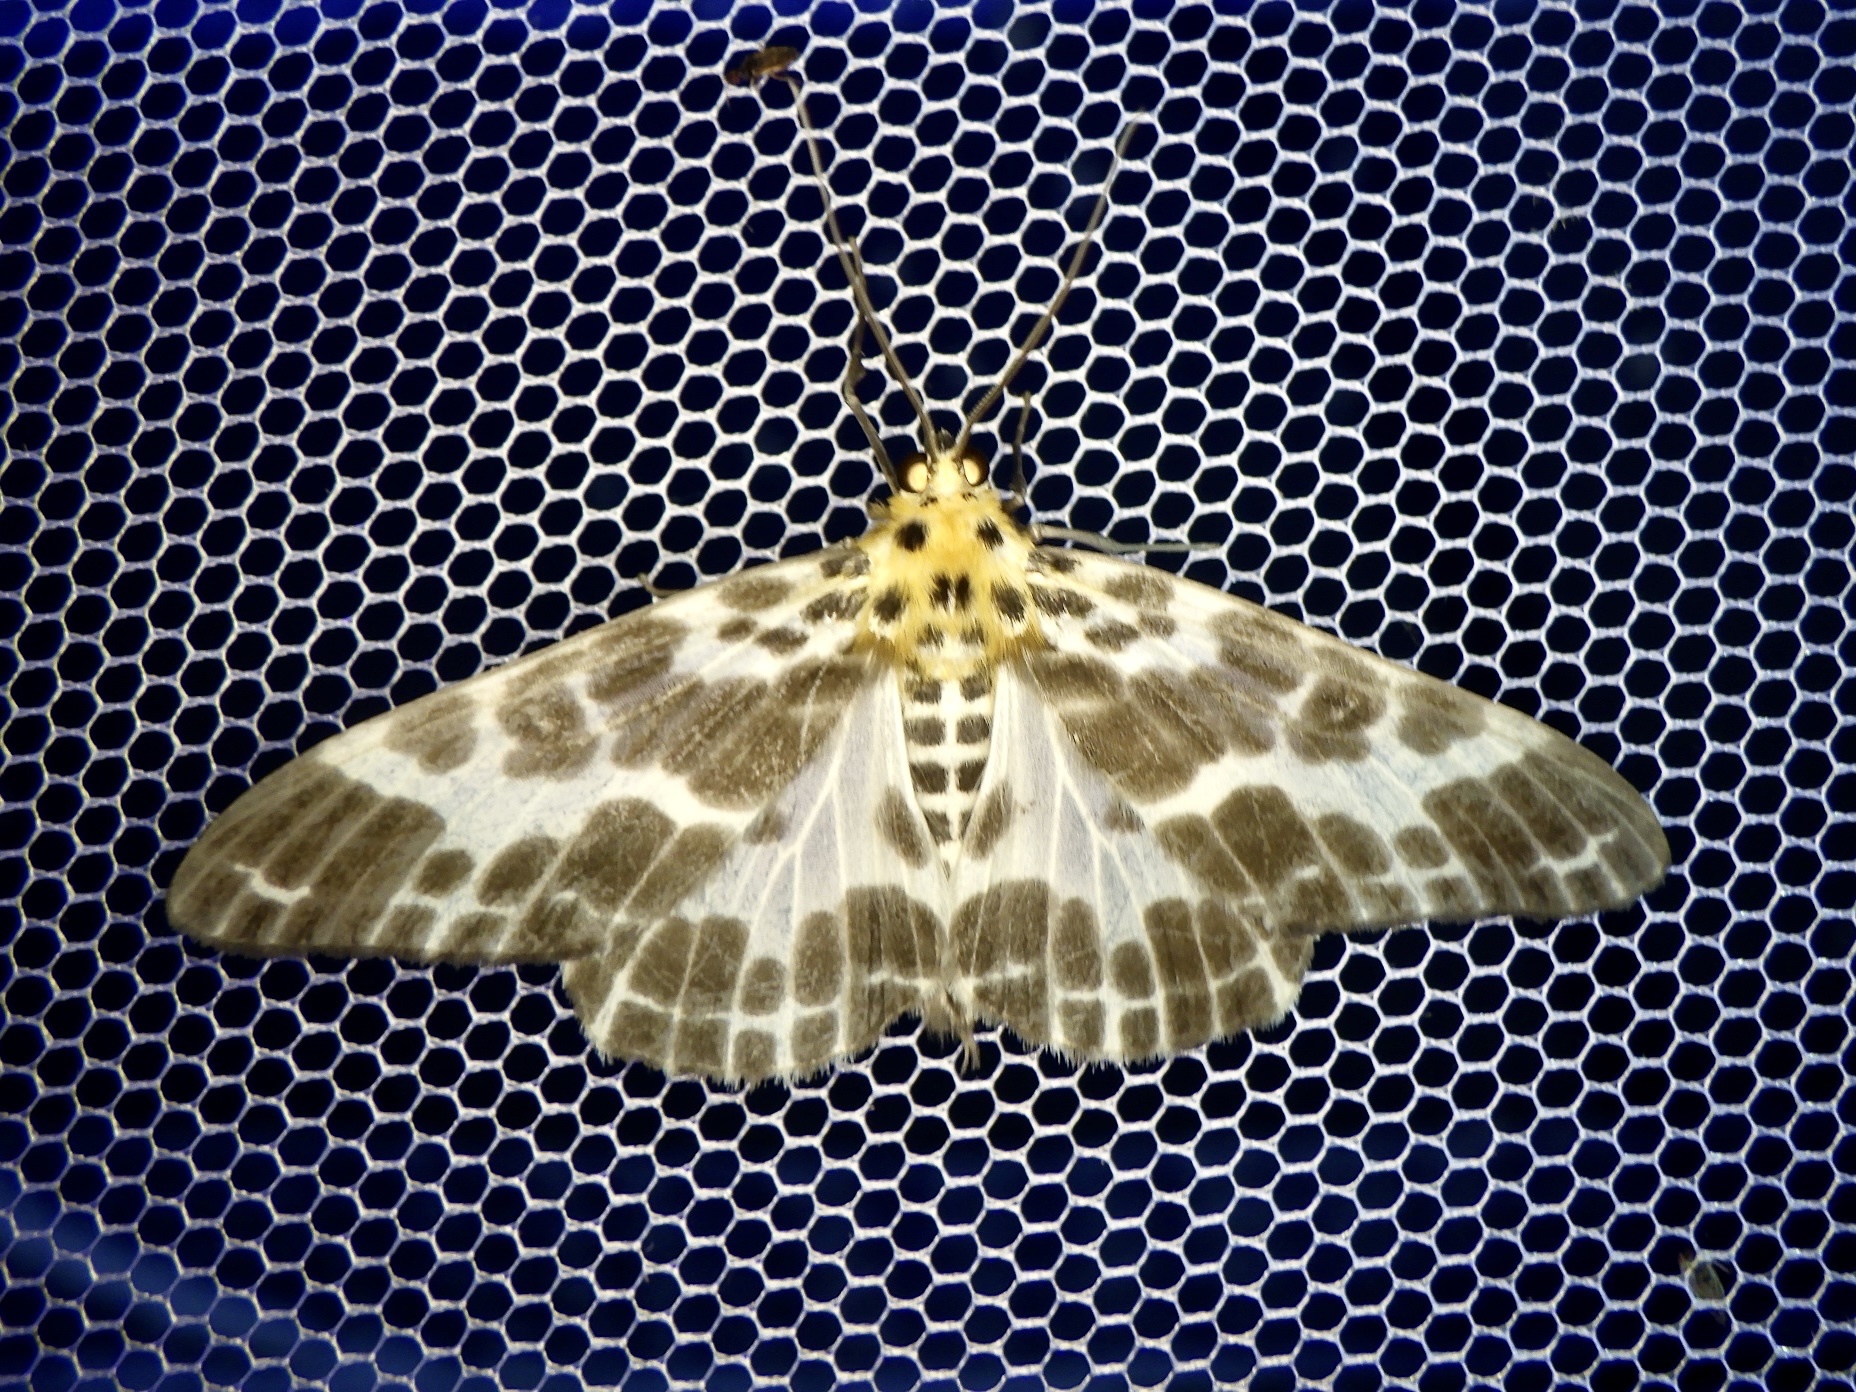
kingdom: Animalia
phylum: Arthropoda
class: Insecta
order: Lepidoptera
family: Geometridae
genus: Pogonopygia
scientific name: Pogonopygia nigralbata
